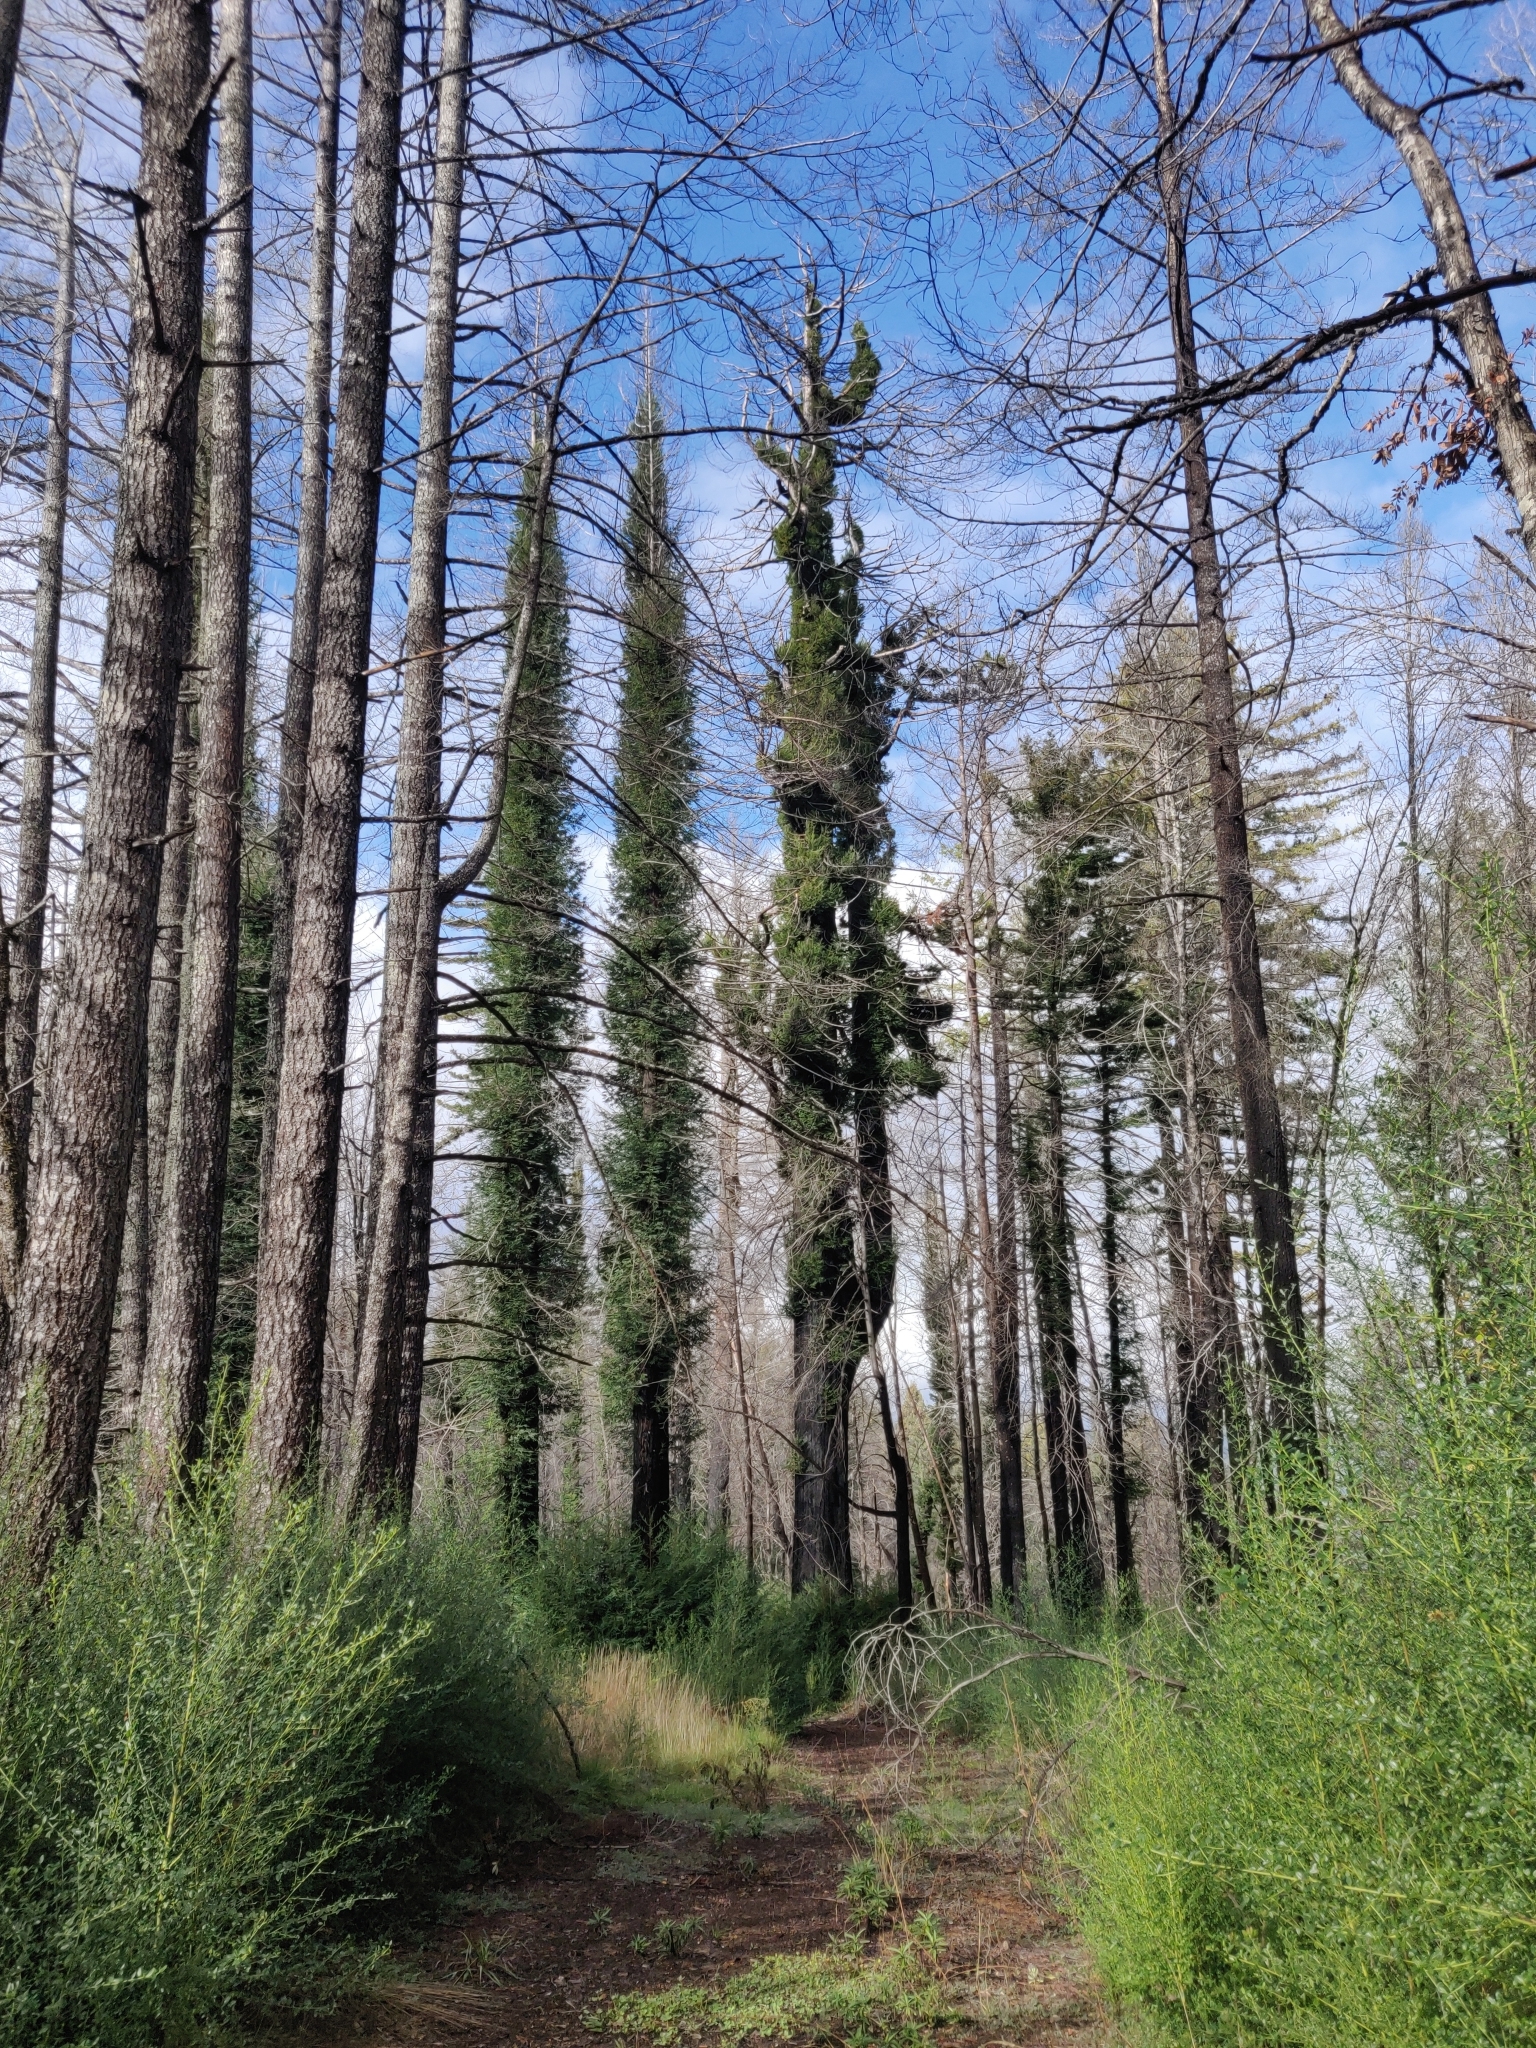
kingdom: Plantae
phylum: Tracheophyta
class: Pinopsida
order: Pinales
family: Cupressaceae
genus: Sequoia
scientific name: Sequoia sempervirens
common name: Coast redwood
